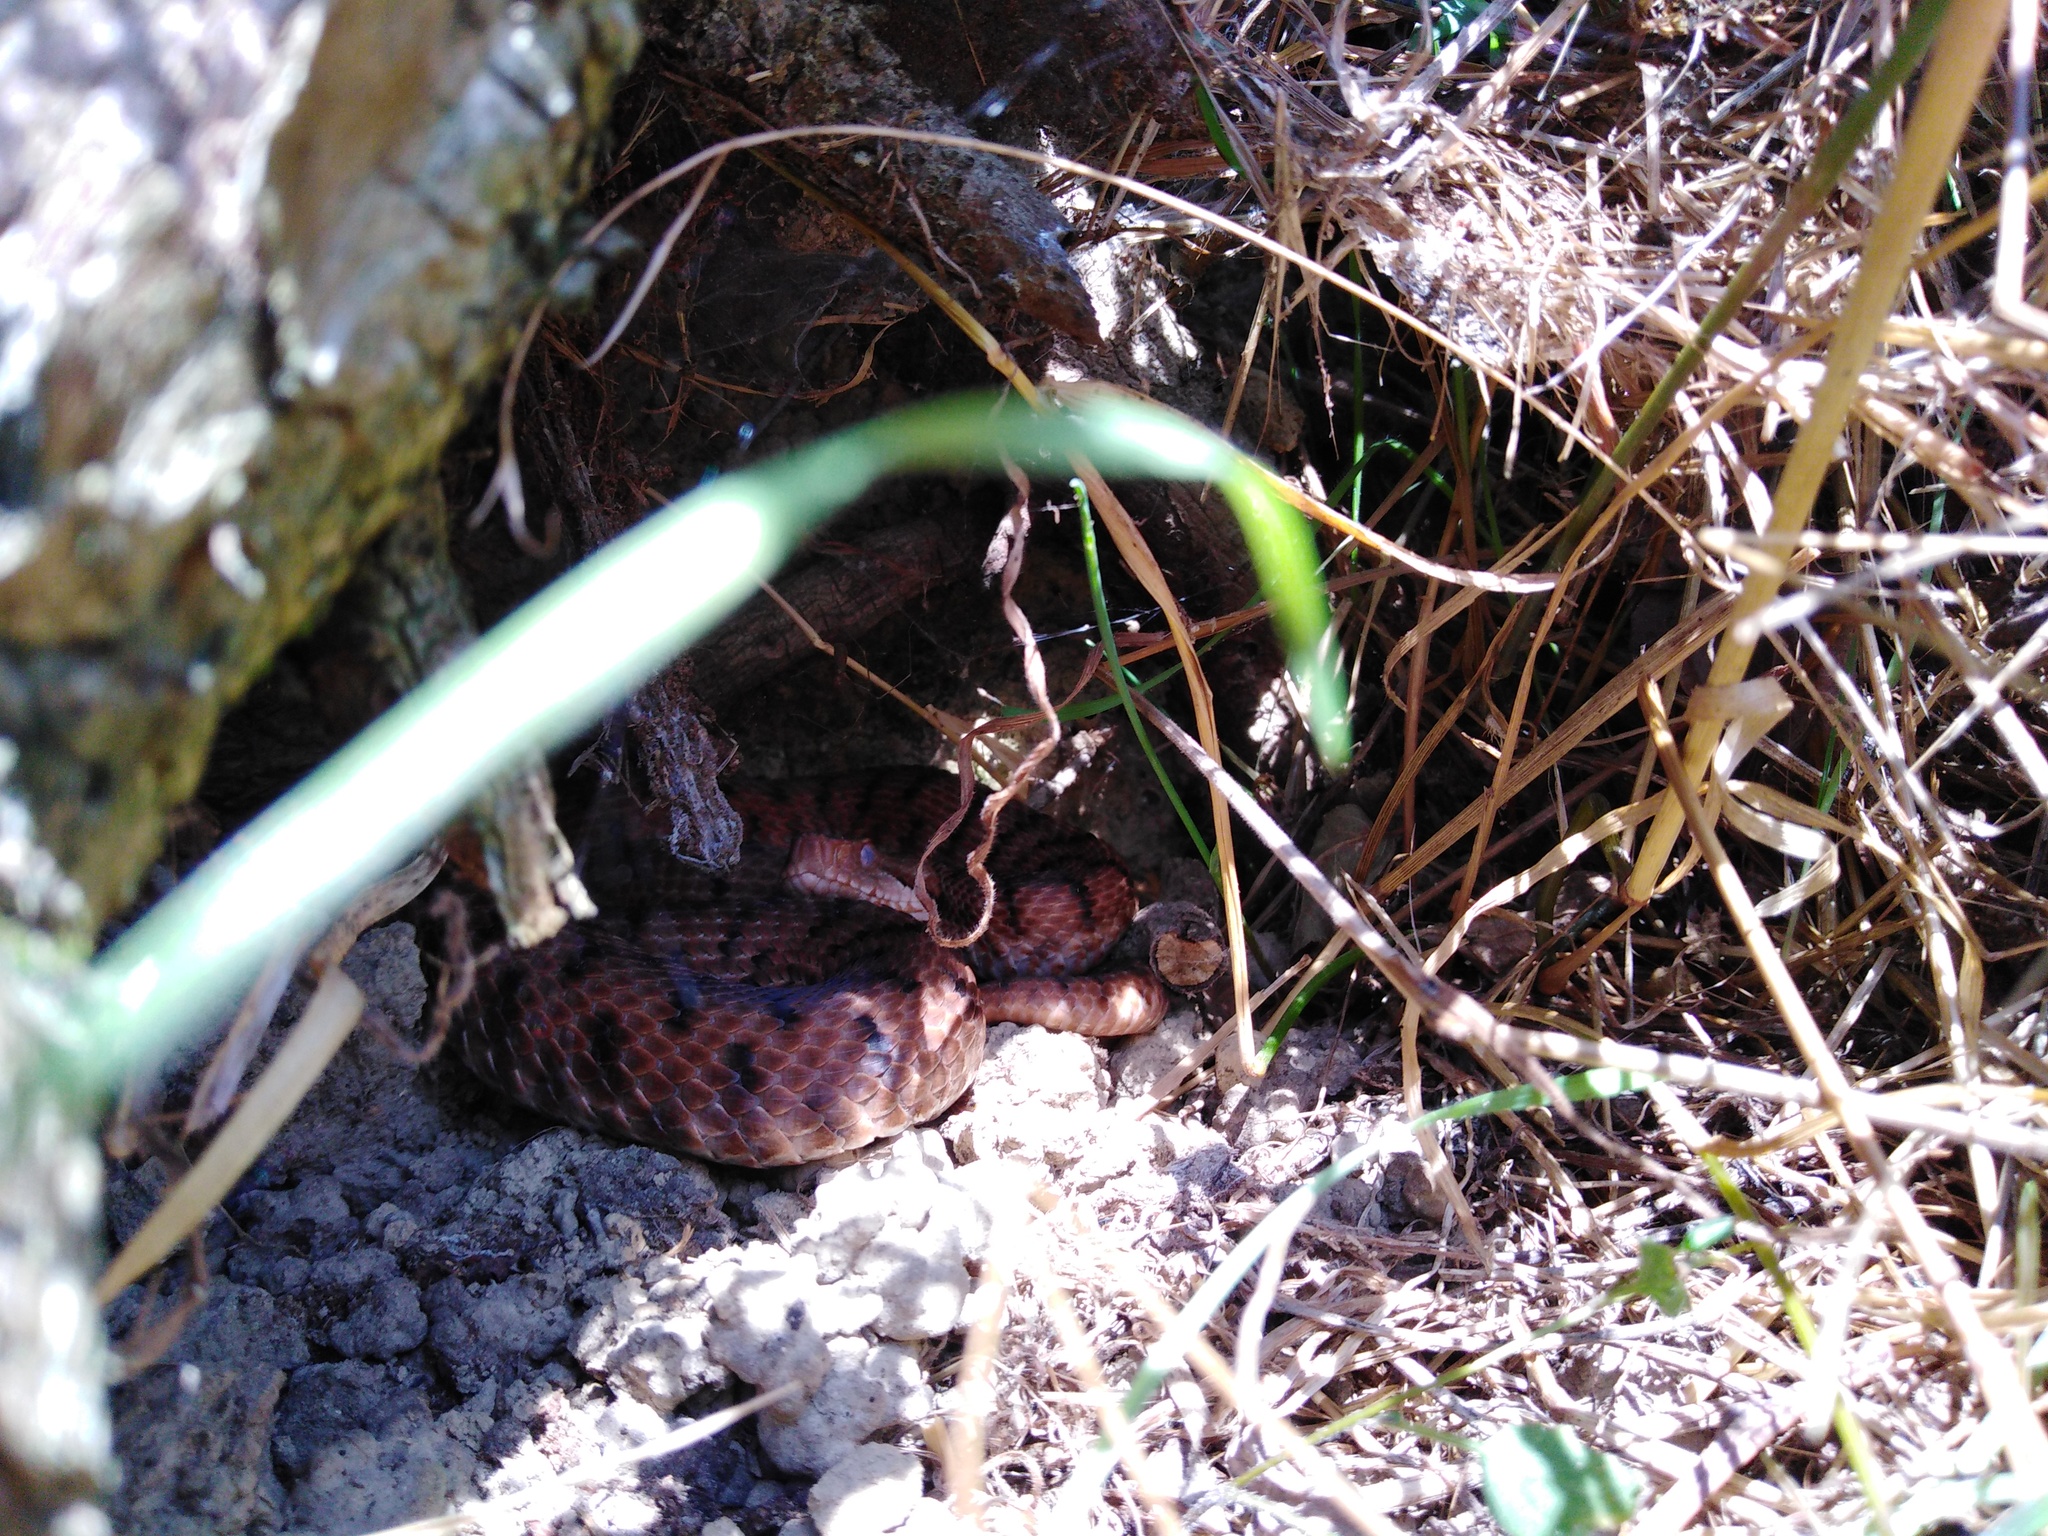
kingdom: Animalia
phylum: Chordata
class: Squamata
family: Viperidae
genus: Vipera
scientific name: Vipera aspis
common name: Asp viper
